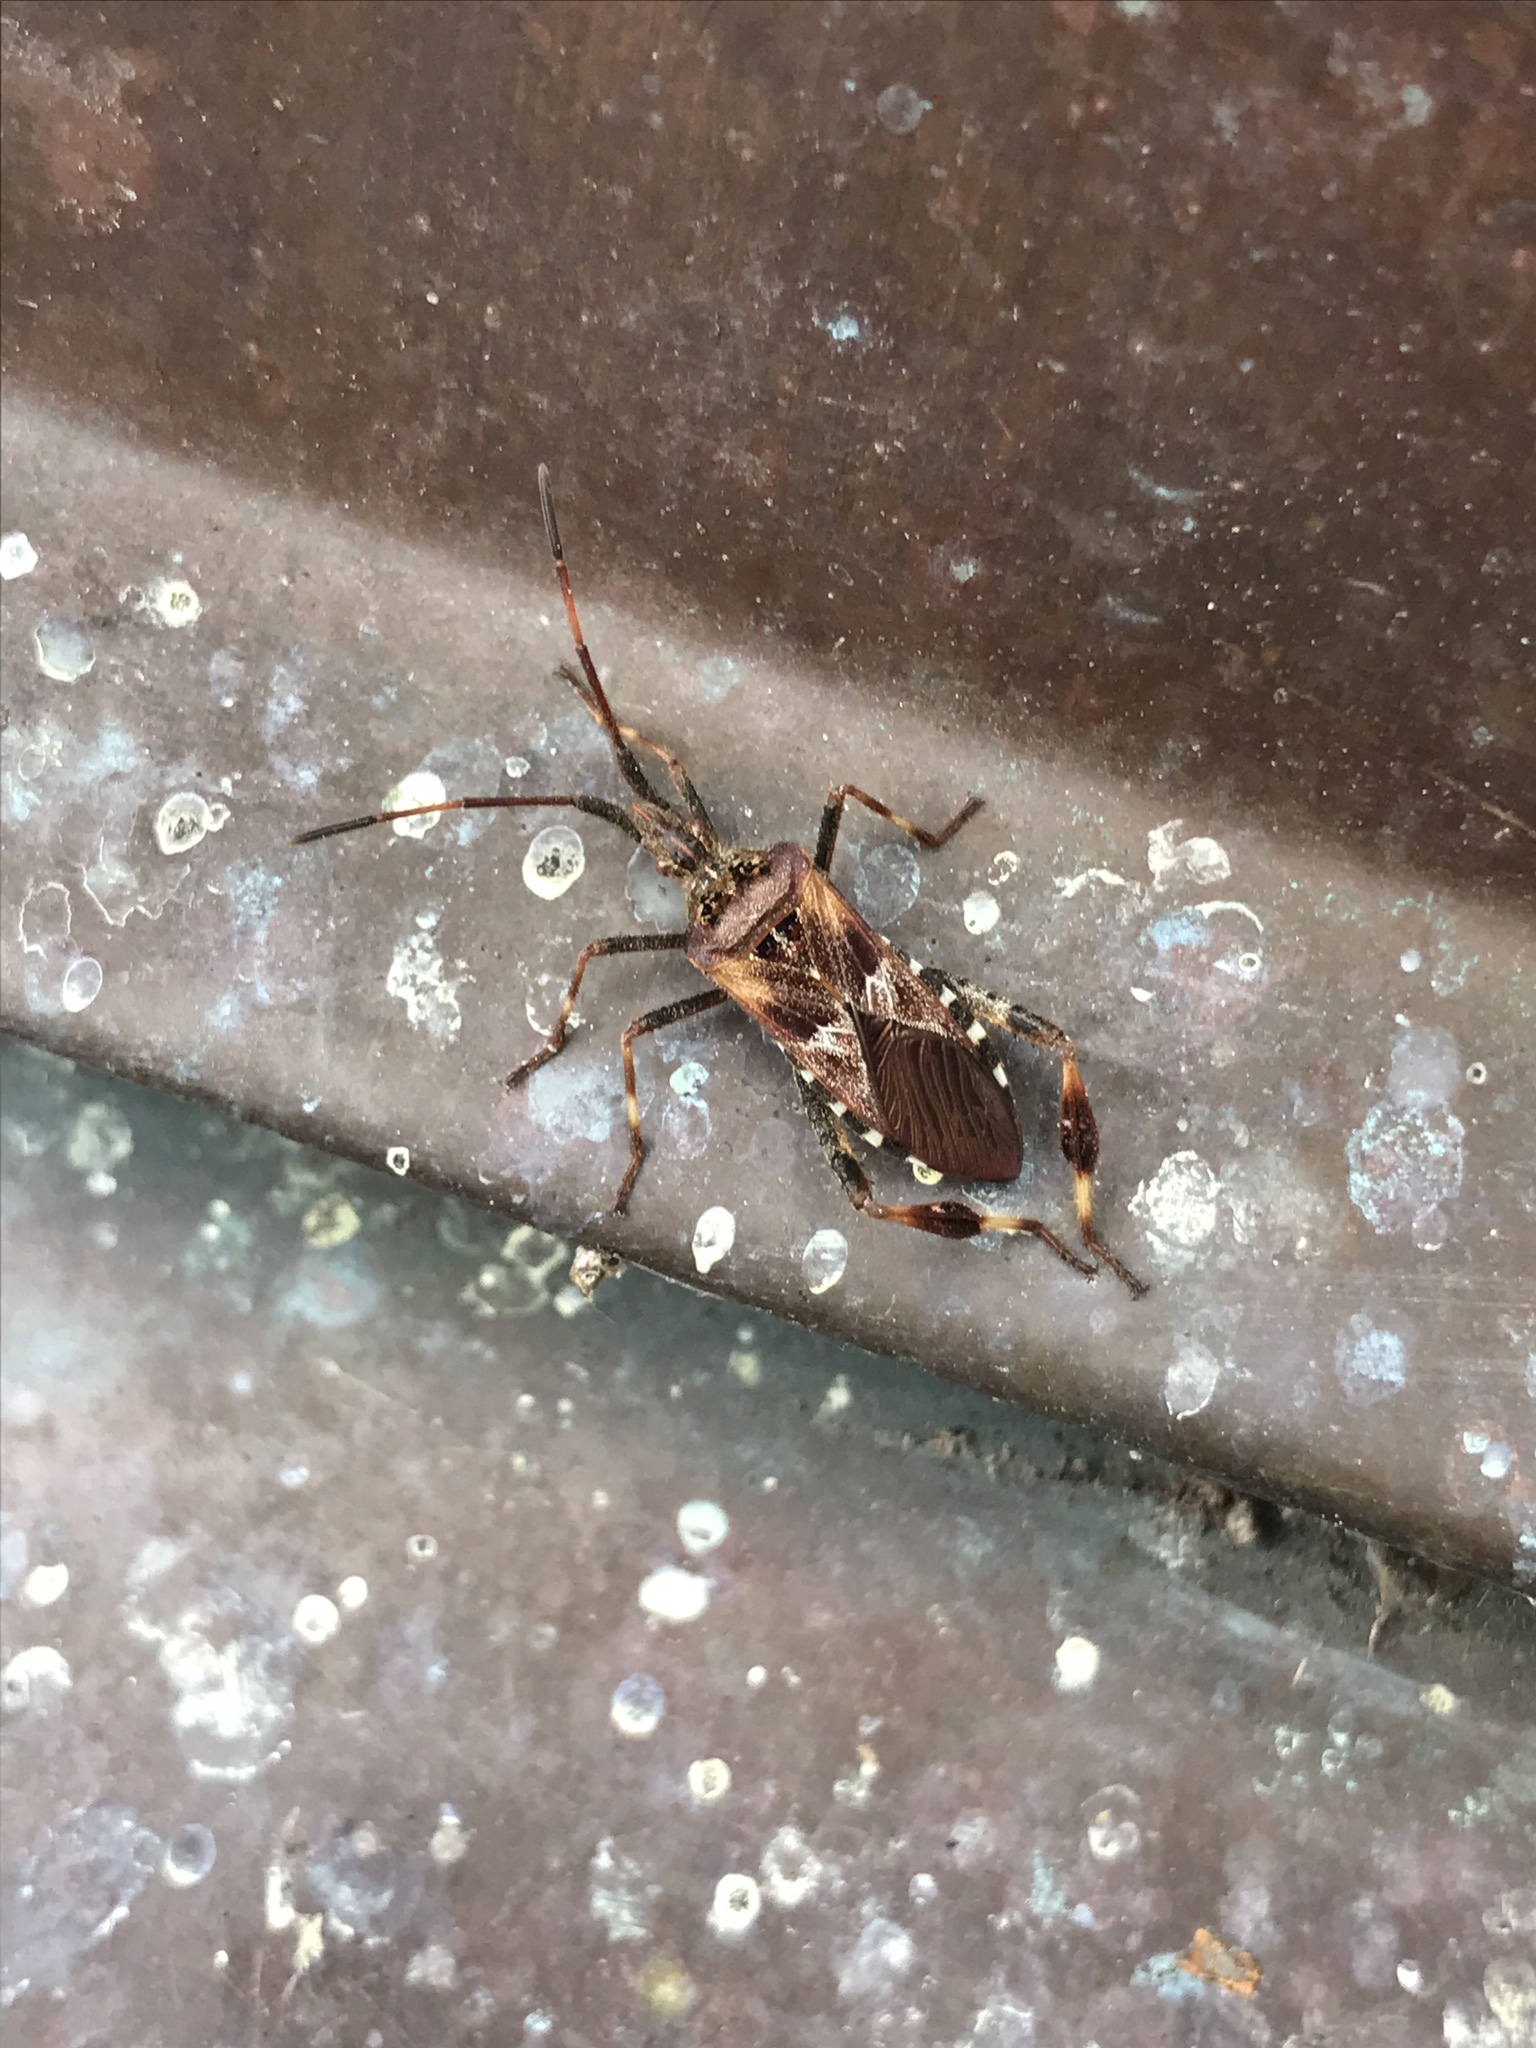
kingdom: Animalia
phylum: Arthropoda
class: Insecta
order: Hemiptera
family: Coreidae
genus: Leptoglossus
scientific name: Leptoglossus occidentalis
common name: Western conifer-seed bug
